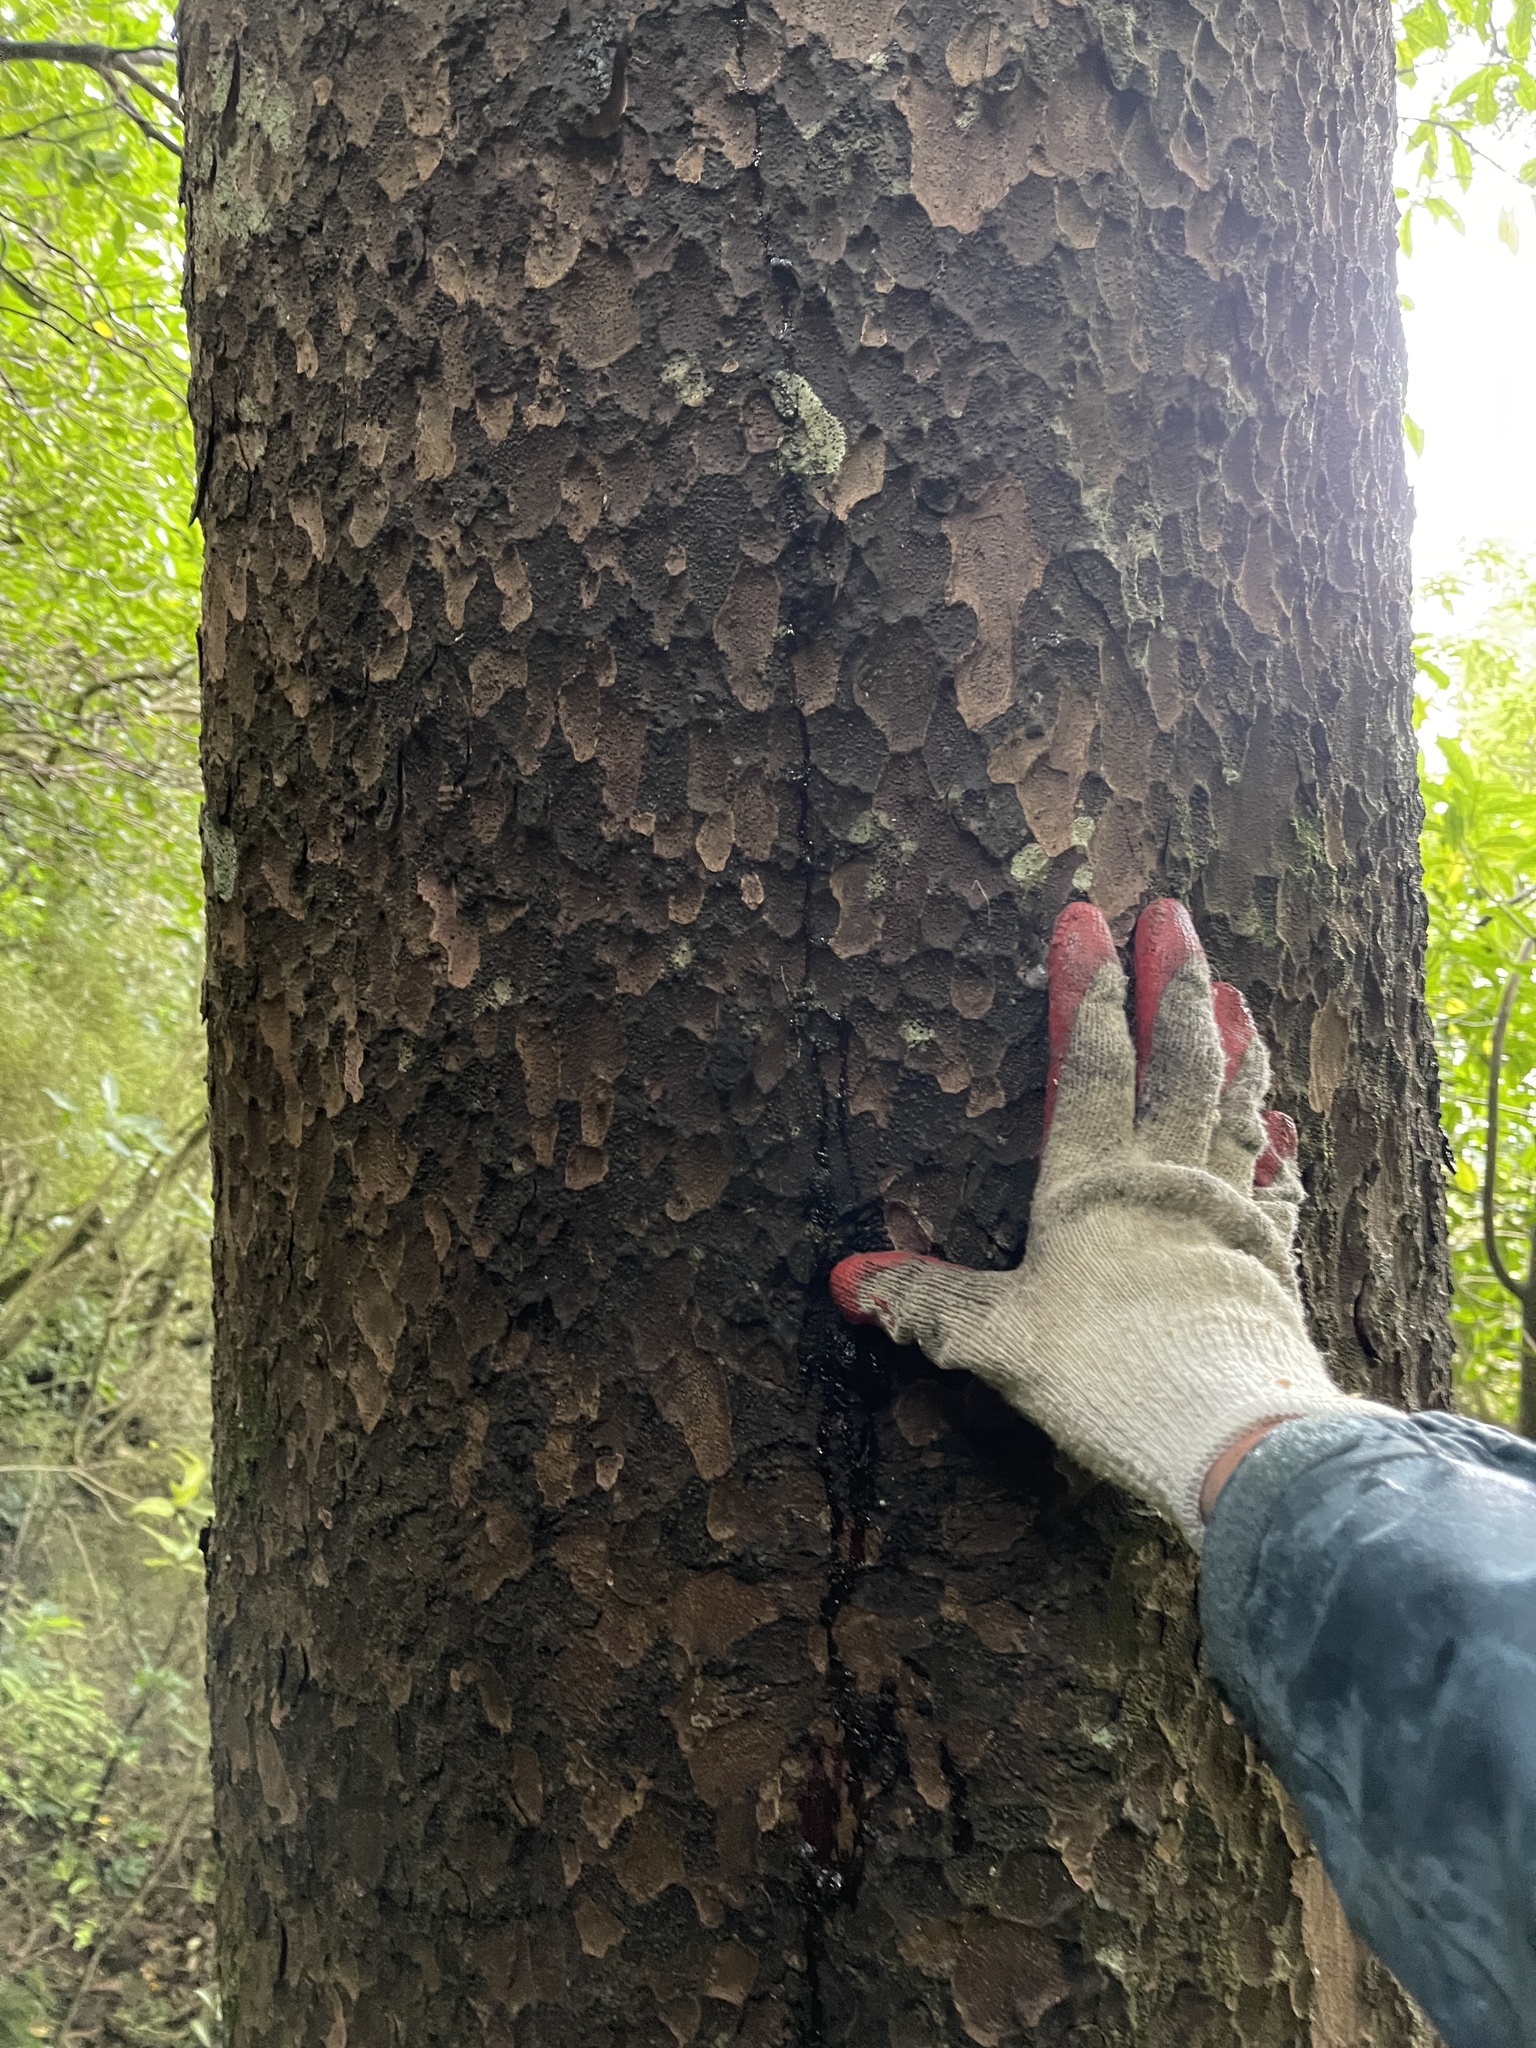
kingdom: Plantae
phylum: Tracheophyta
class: Pinopsida
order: Pinales
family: Podocarpaceae
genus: Prumnopitys
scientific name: Prumnopitys taxifolia
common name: Matai
